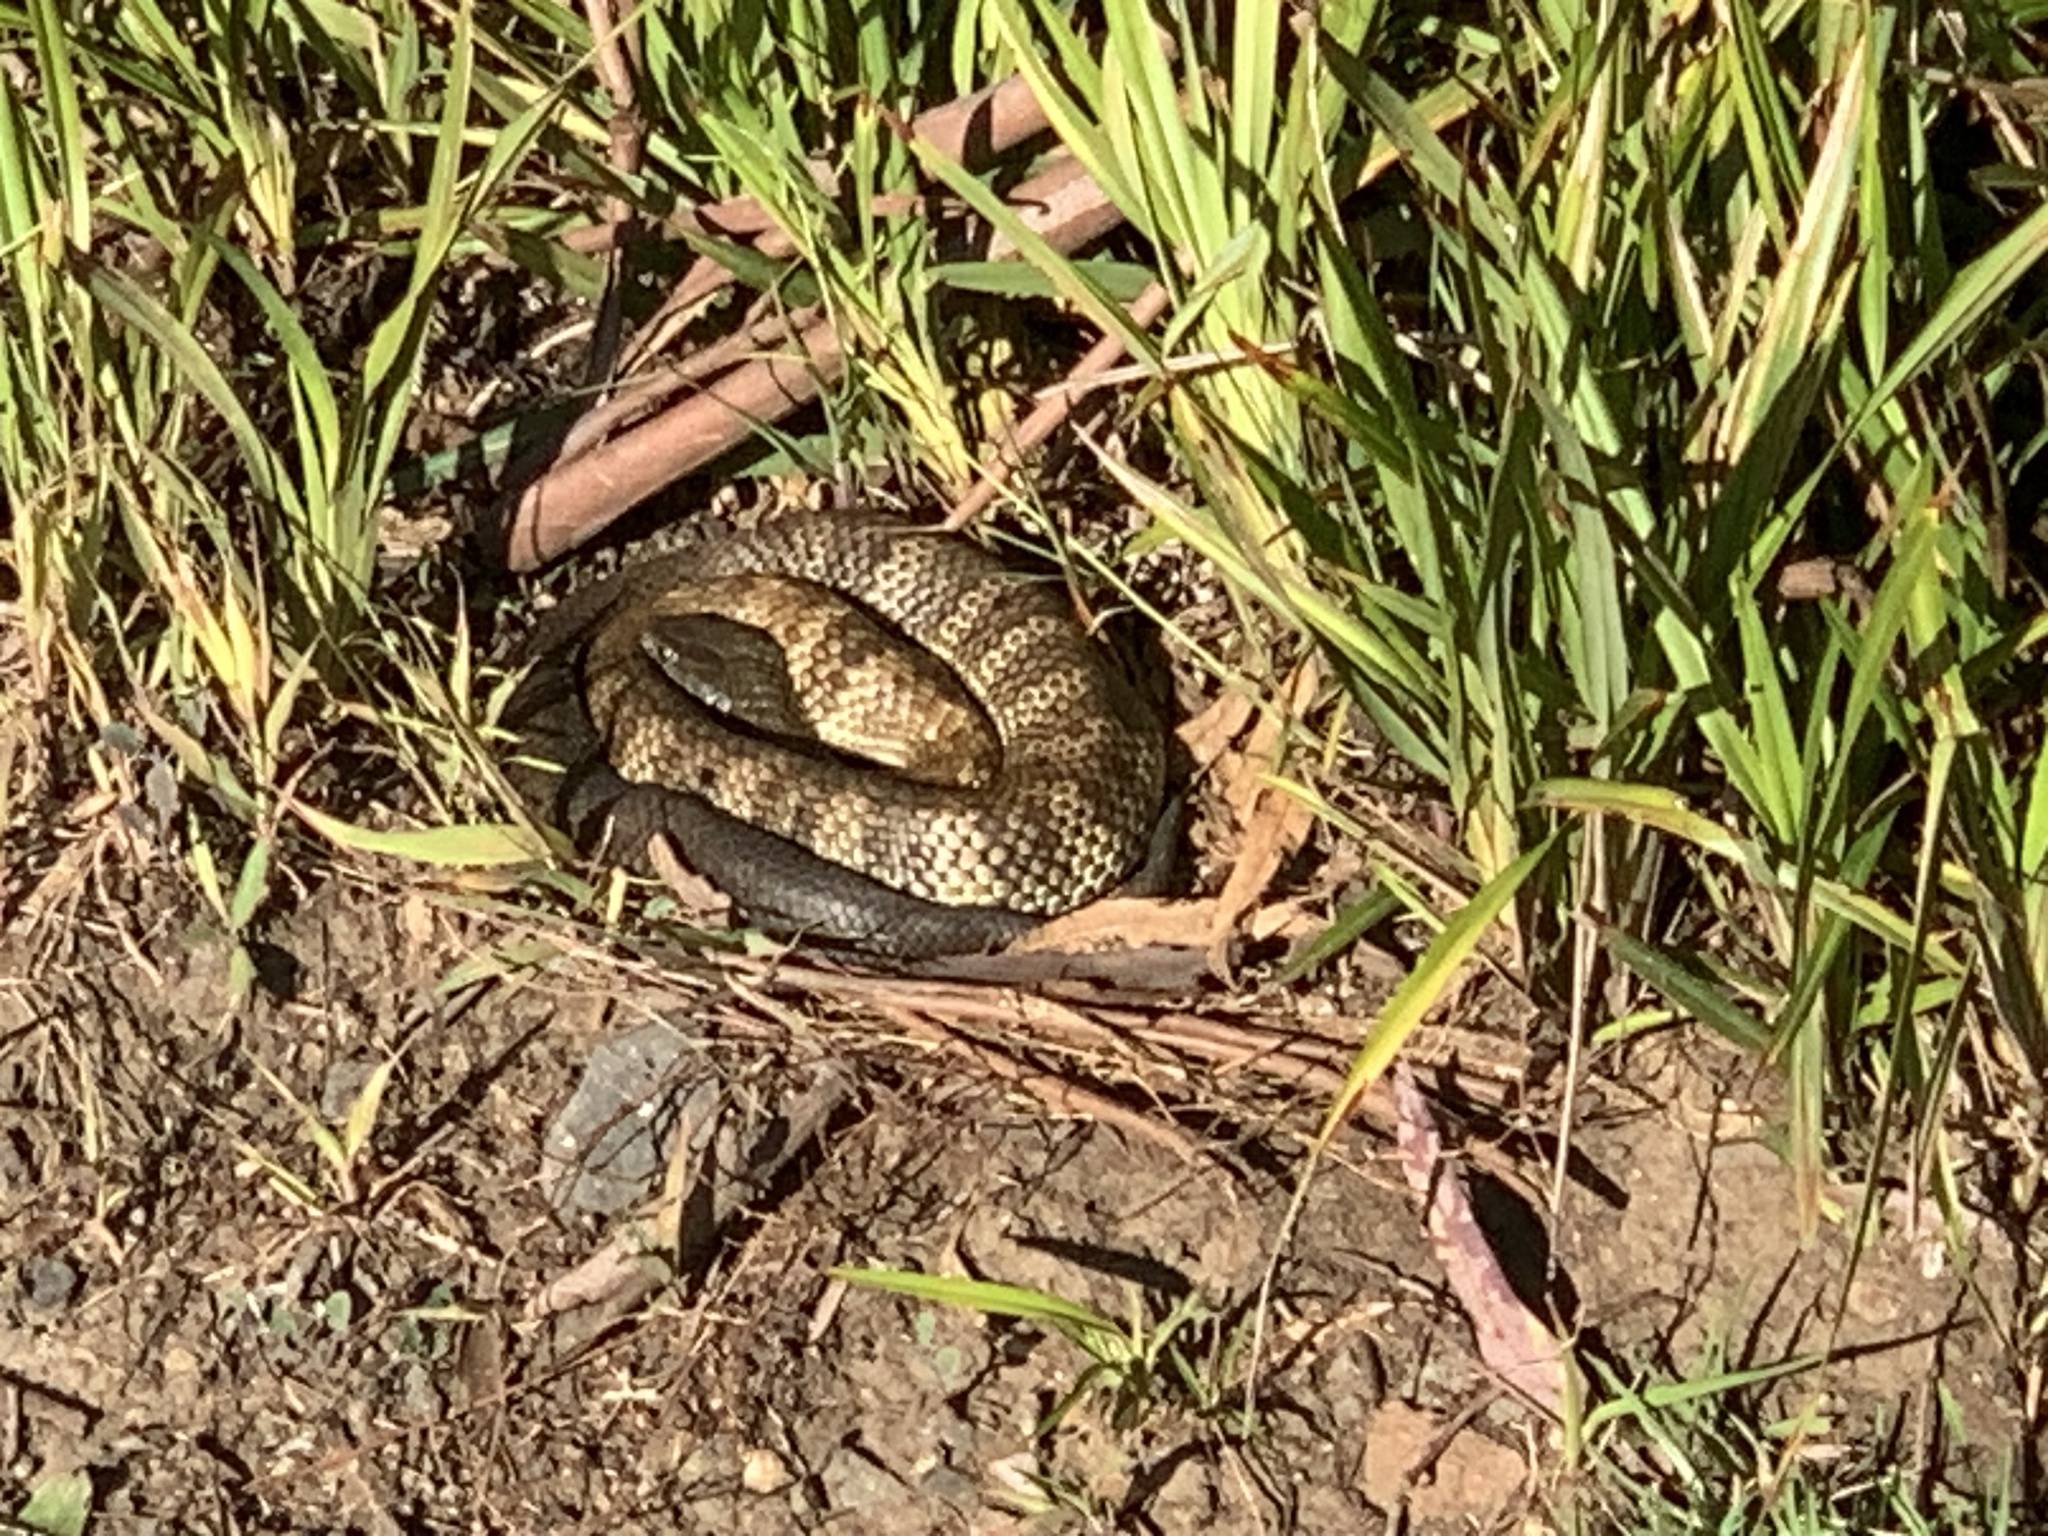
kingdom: Animalia
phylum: Chordata
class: Squamata
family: Elapidae
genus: Notechis
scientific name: Notechis scutatus
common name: Mainland tiger snake
